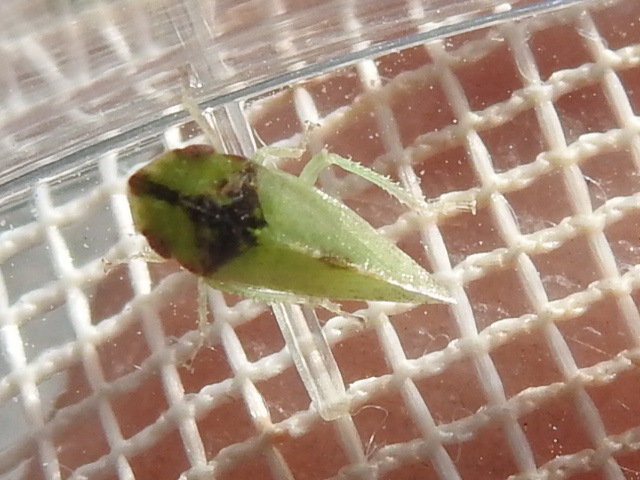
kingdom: Animalia
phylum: Arthropoda
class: Insecta
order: Hemiptera
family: Cicadellidae
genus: Xerophloea
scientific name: Xerophloea viridis
